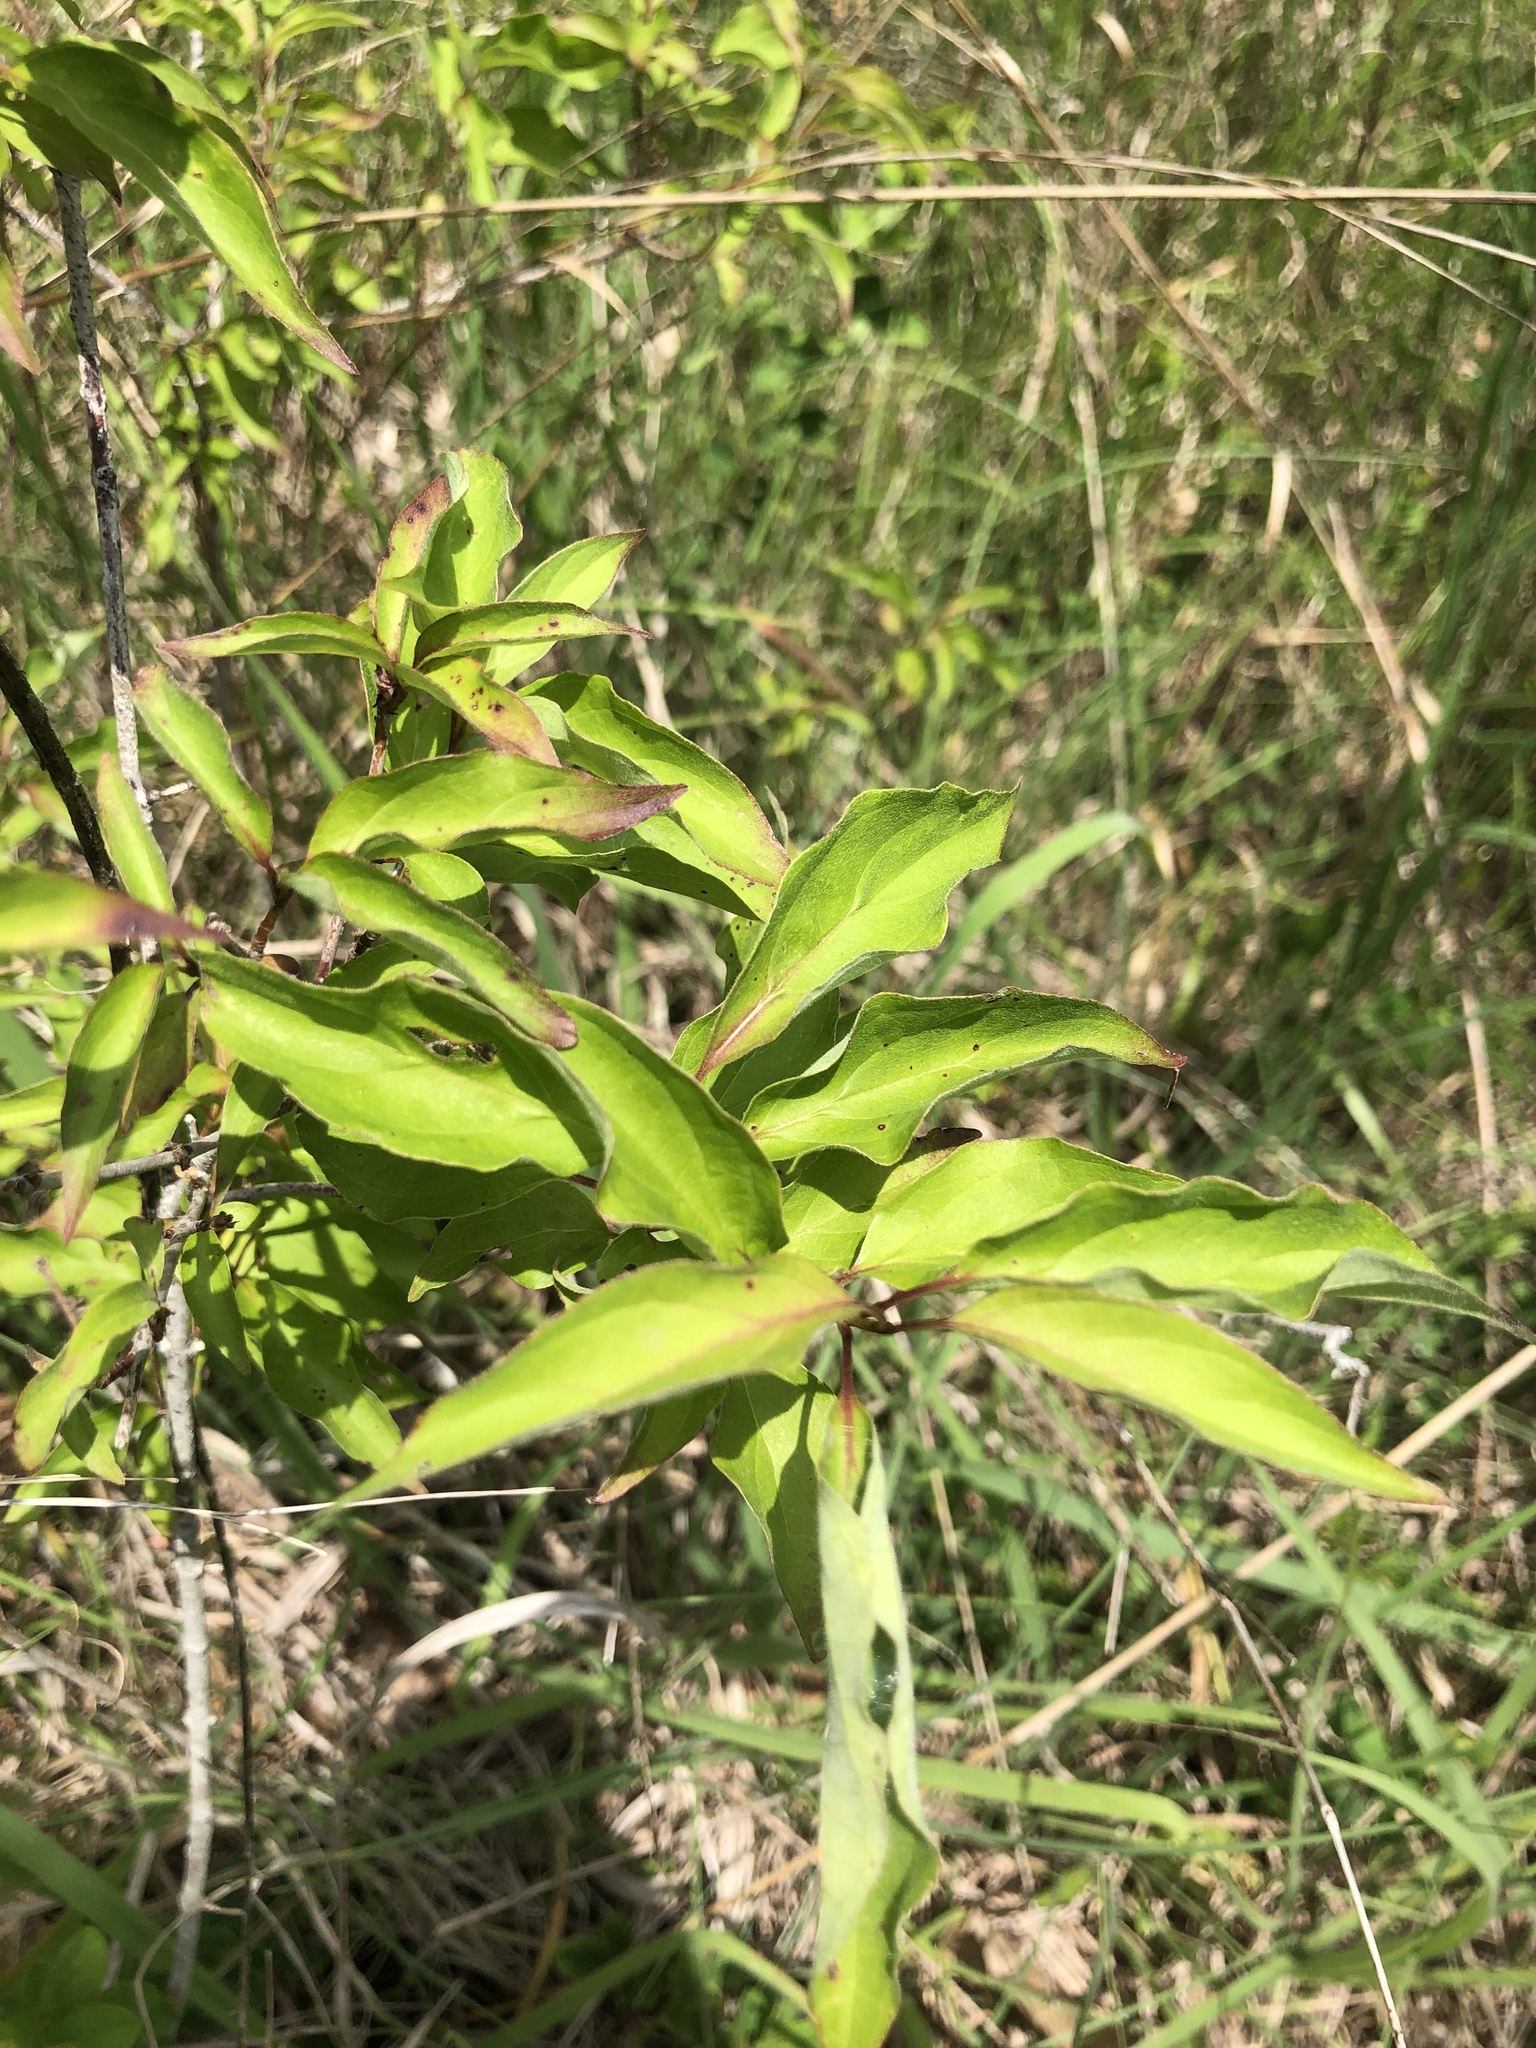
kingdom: Plantae
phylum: Tracheophyta
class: Magnoliopsida
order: Cornales
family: Cornaceae
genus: Cornus
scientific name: Cornus drummondii
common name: Rough-leaf dogwood
